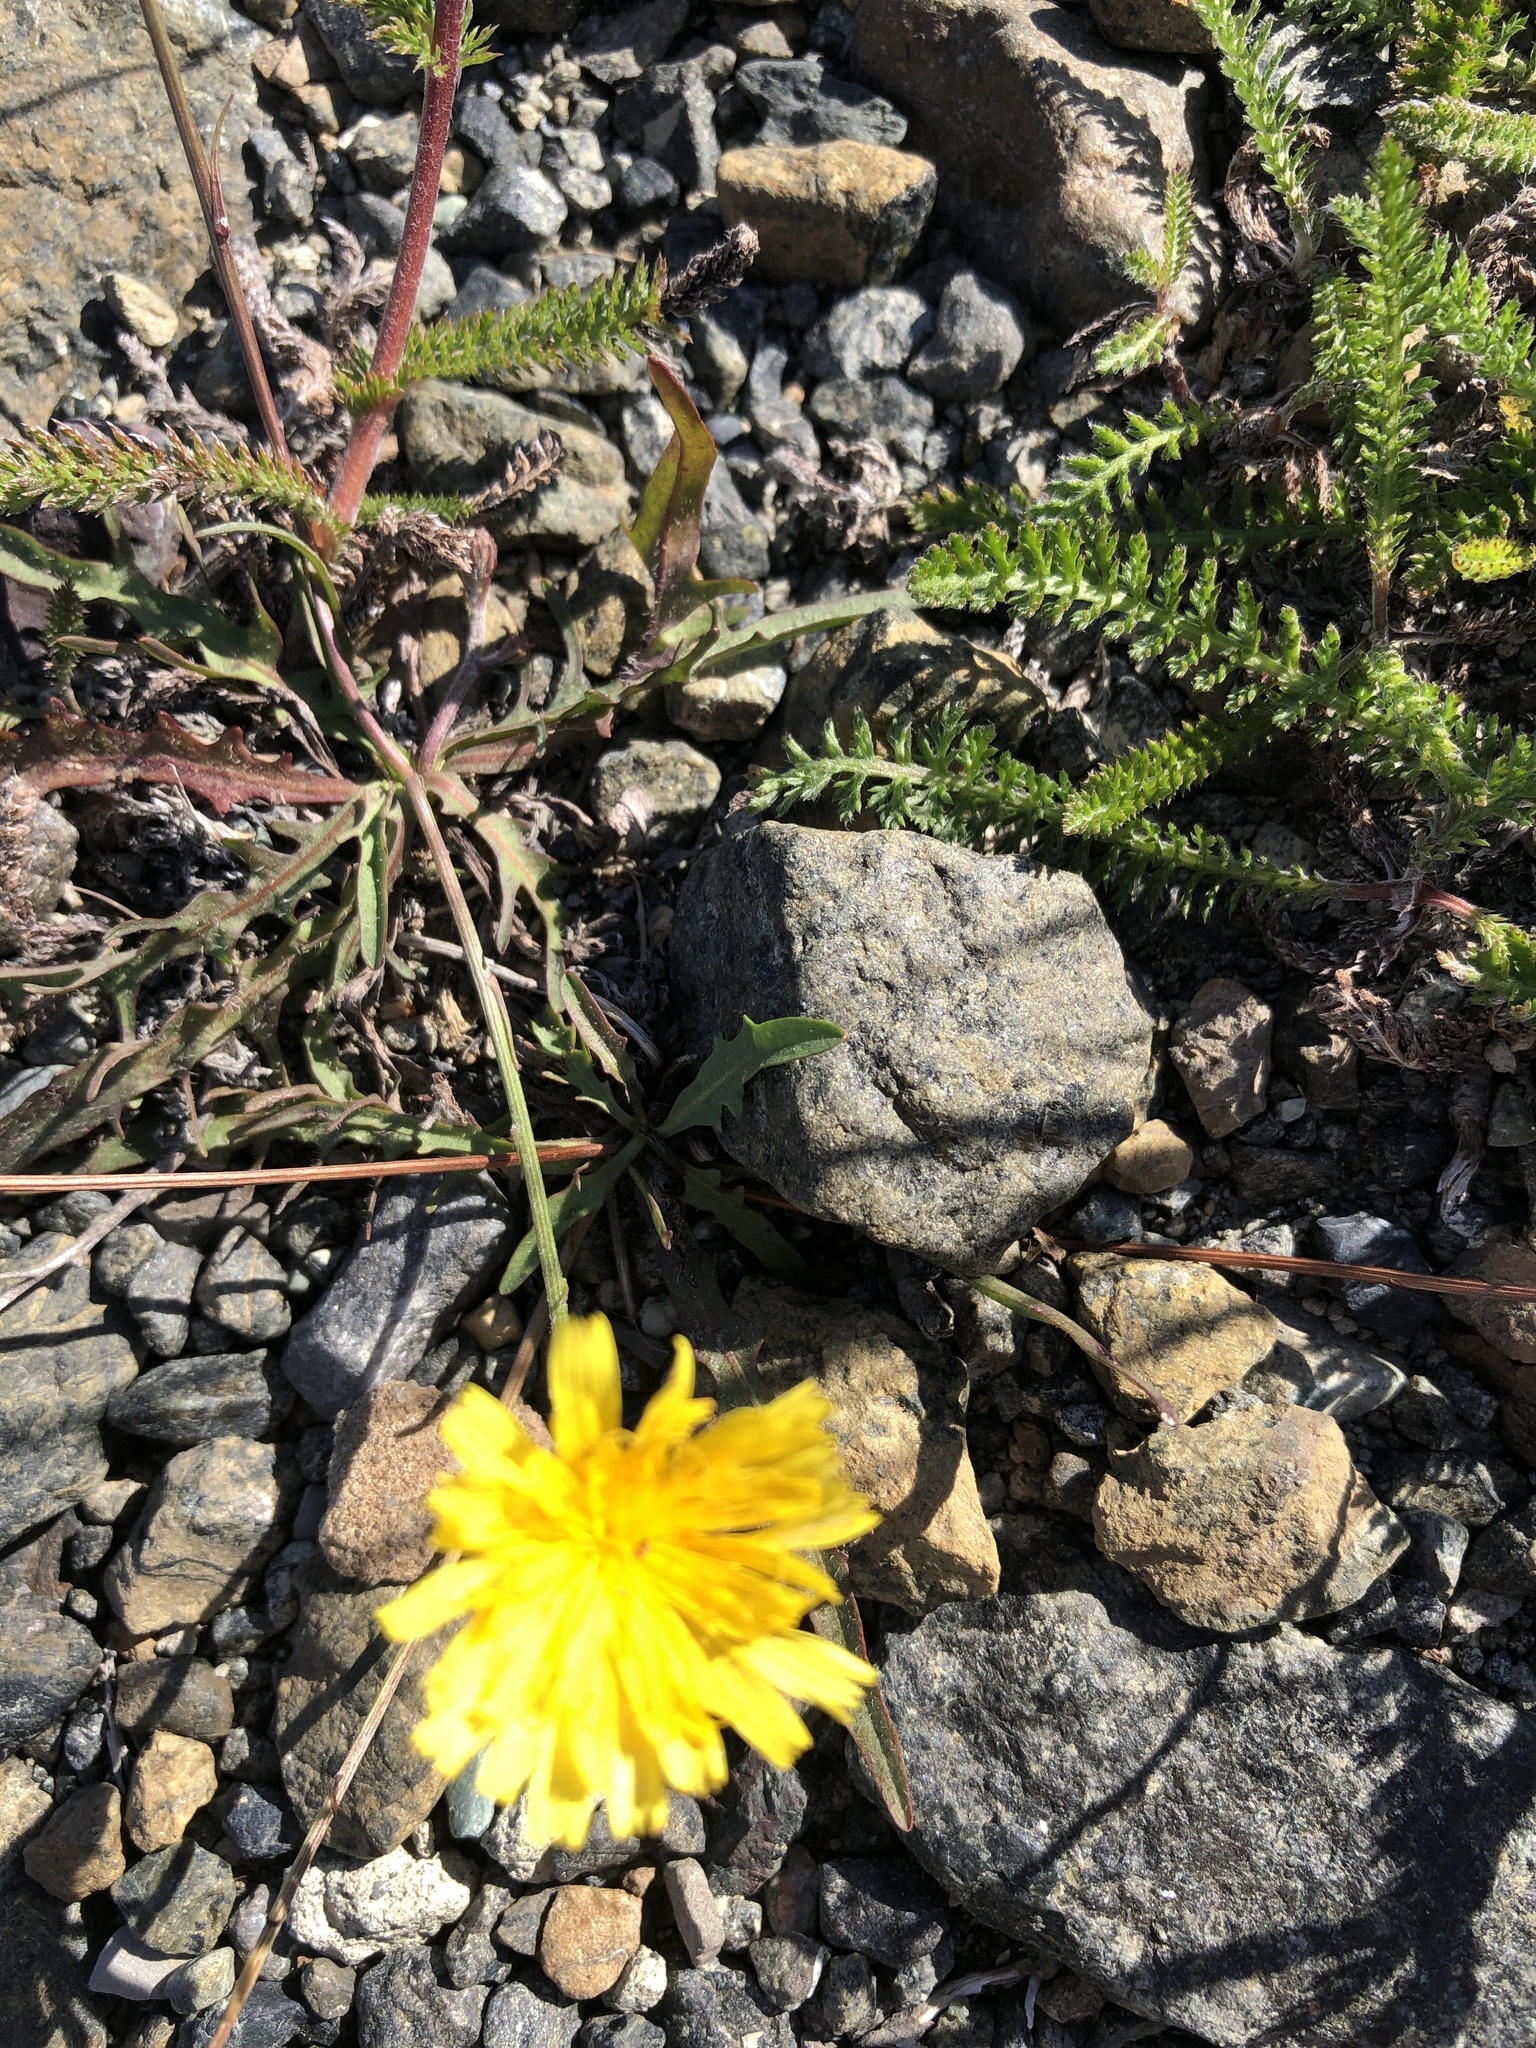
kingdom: Plantae
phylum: Tracheophyta
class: Magnoliopsida
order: Asterales
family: Asteraceae
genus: Scorzoneroides
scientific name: Scorzoneroides autumnalis
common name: Autumn hawkbit
